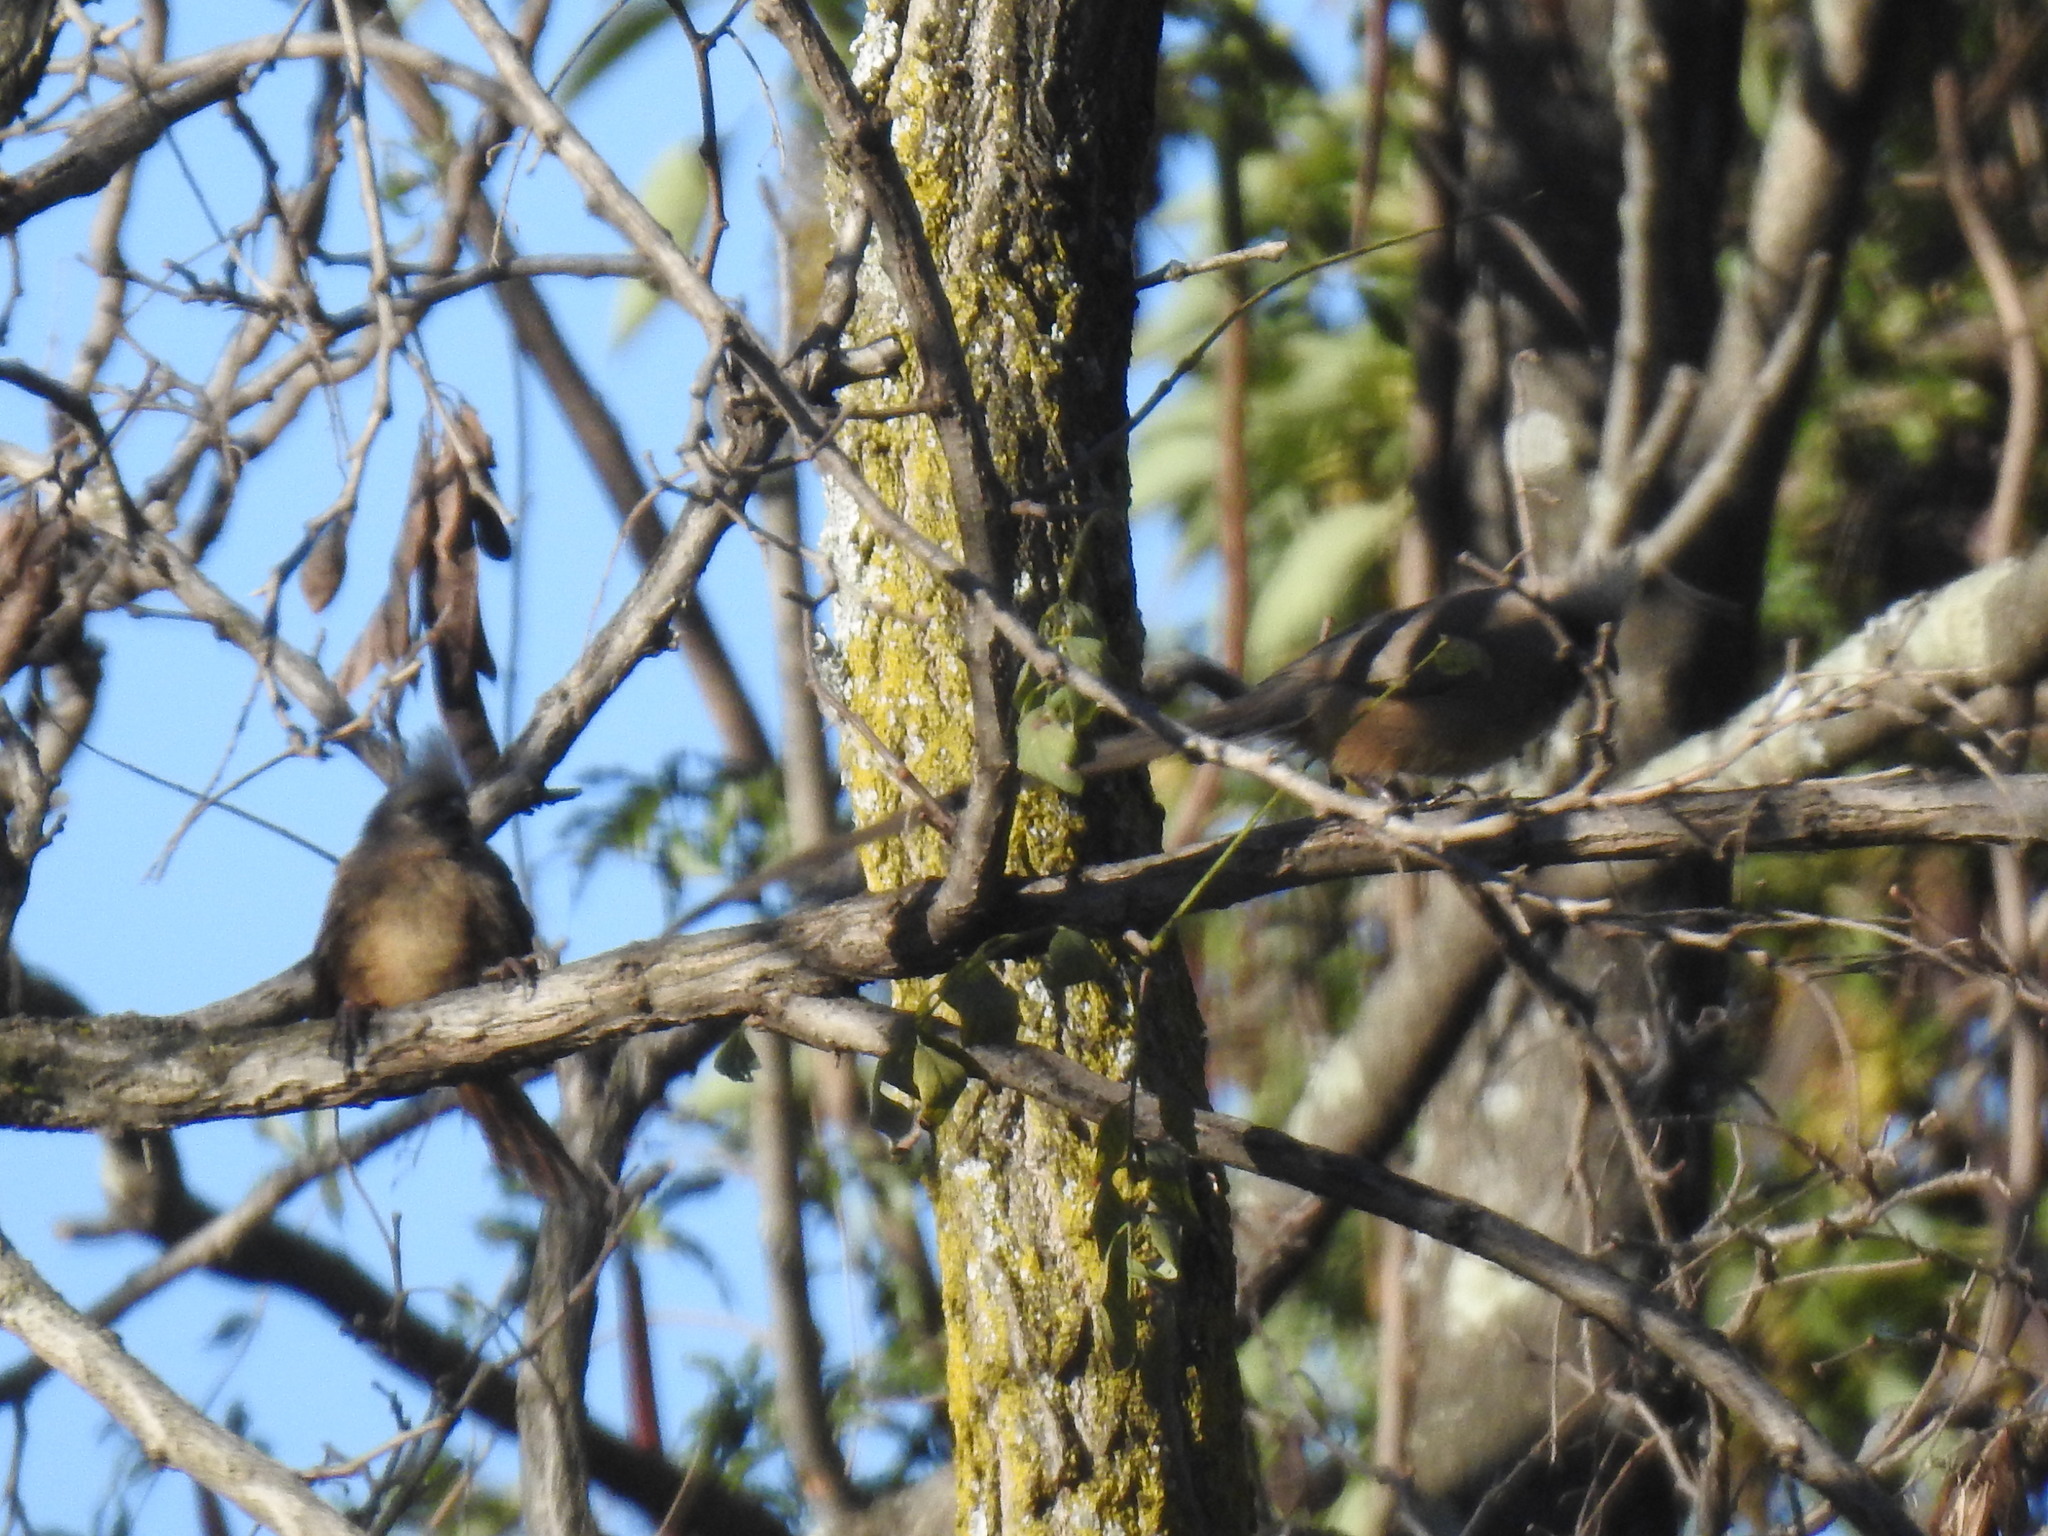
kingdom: Animalia
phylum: Chordata
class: Aves
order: Coliiformes
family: Coliidae
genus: Colius
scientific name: Colius striatus
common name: Speckled mousebird
